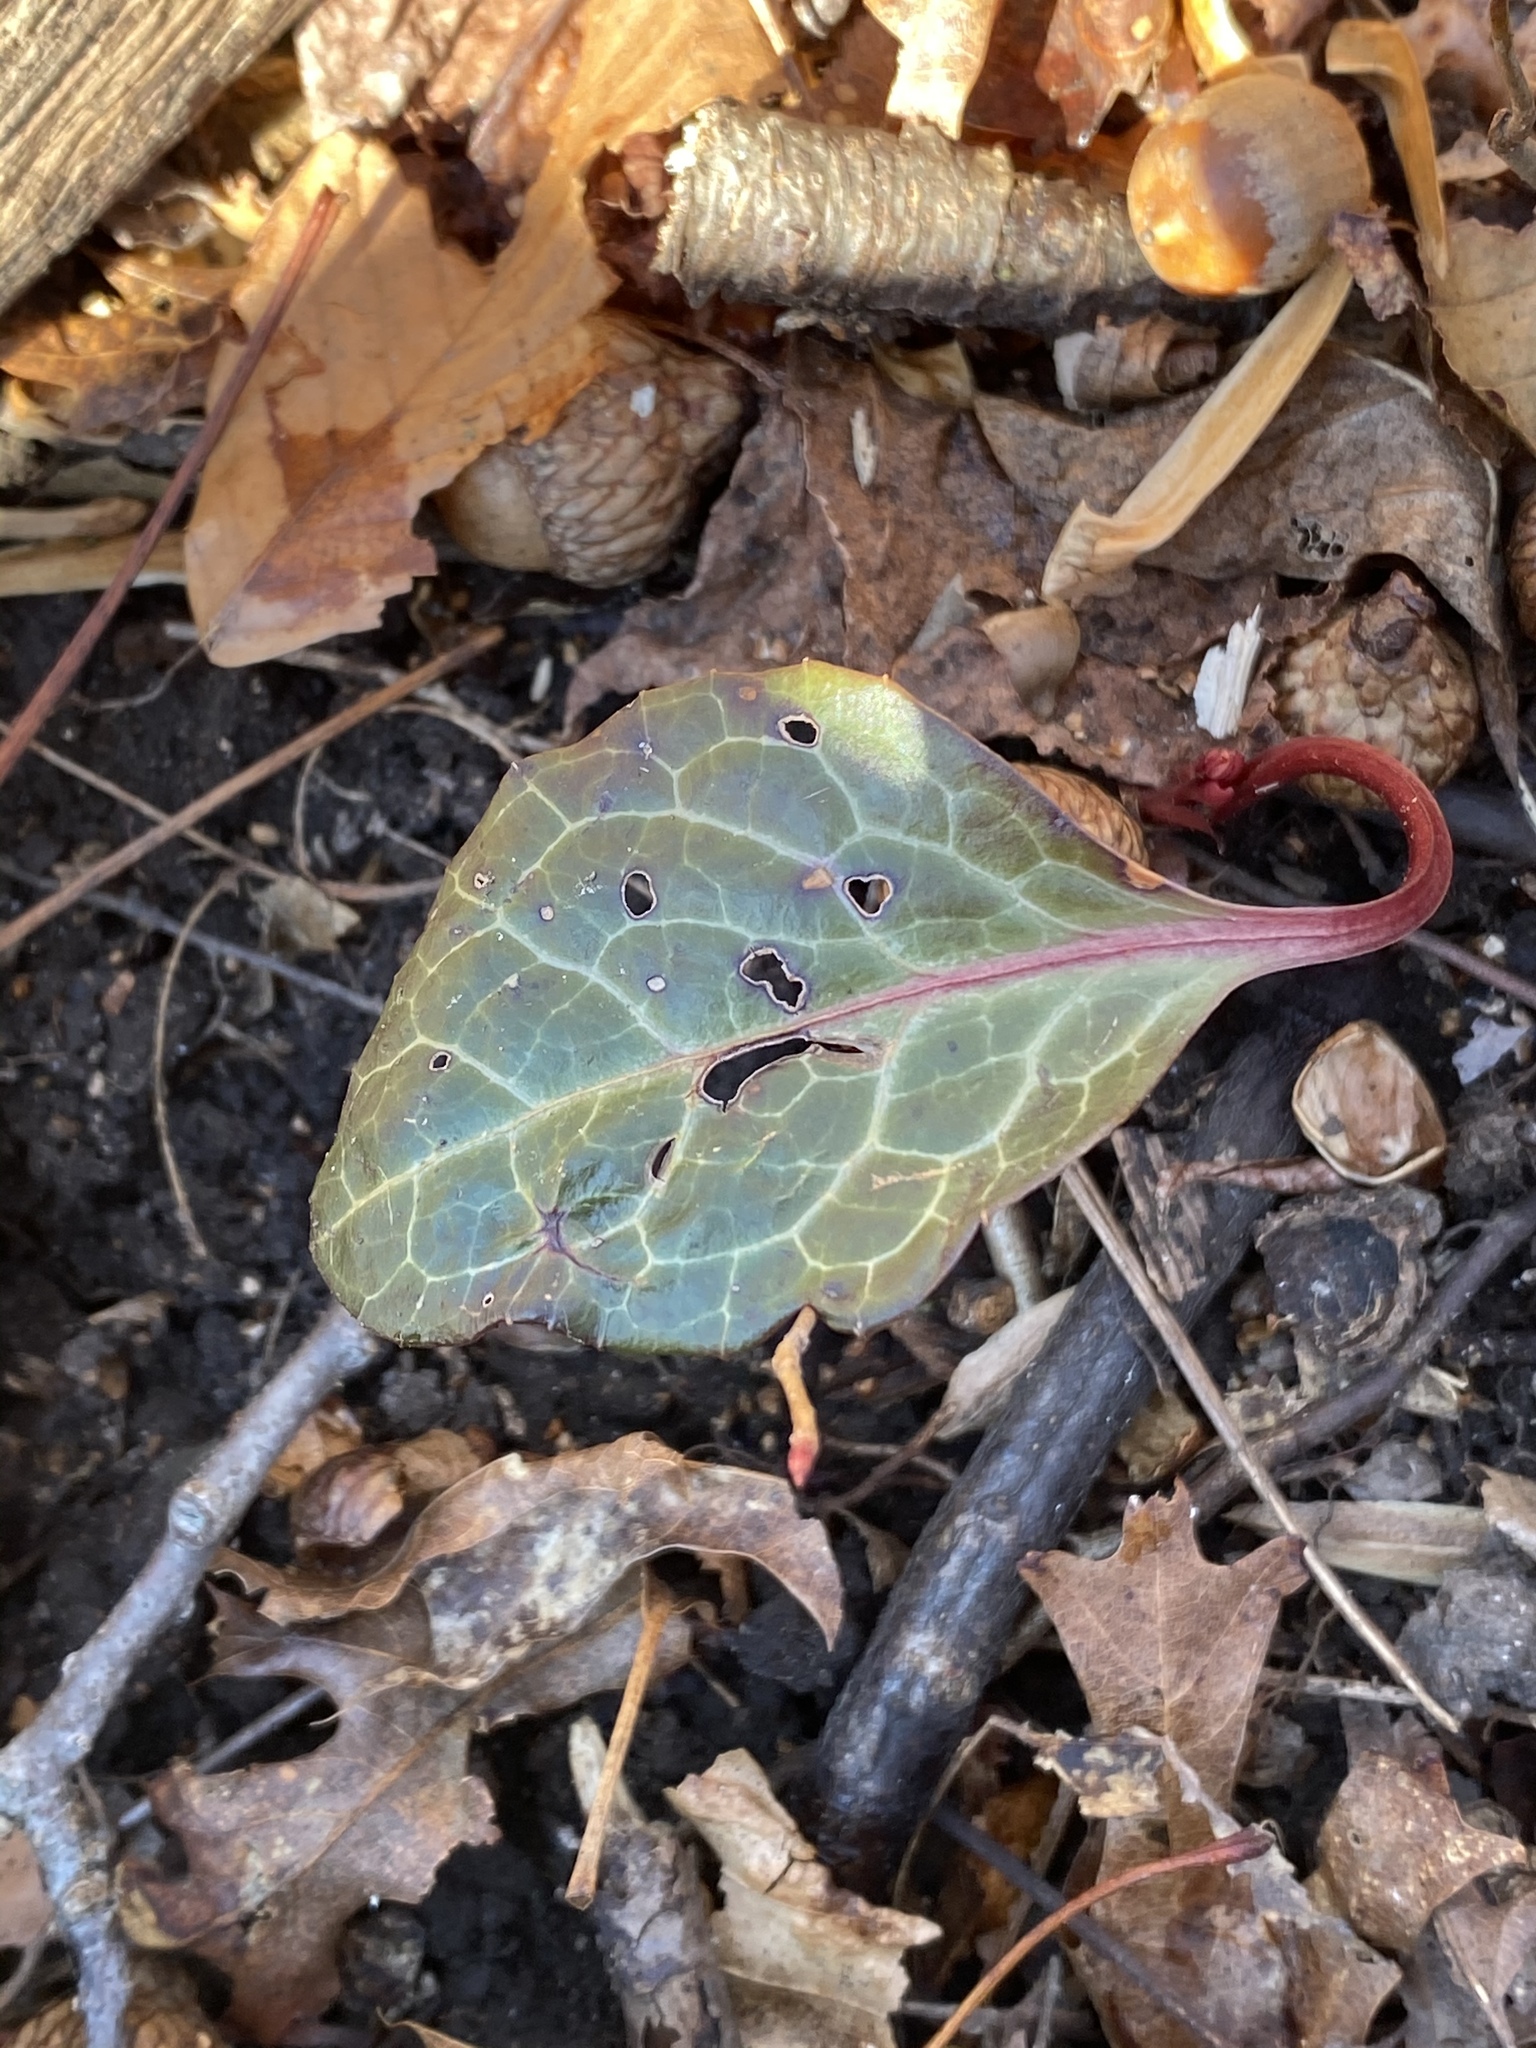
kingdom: Plantae
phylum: Tracheophyta
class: Magnoliopsida
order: Ericales
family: Ericaceae
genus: Pyrola
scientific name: Pyrola americana
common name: American wintergreen
